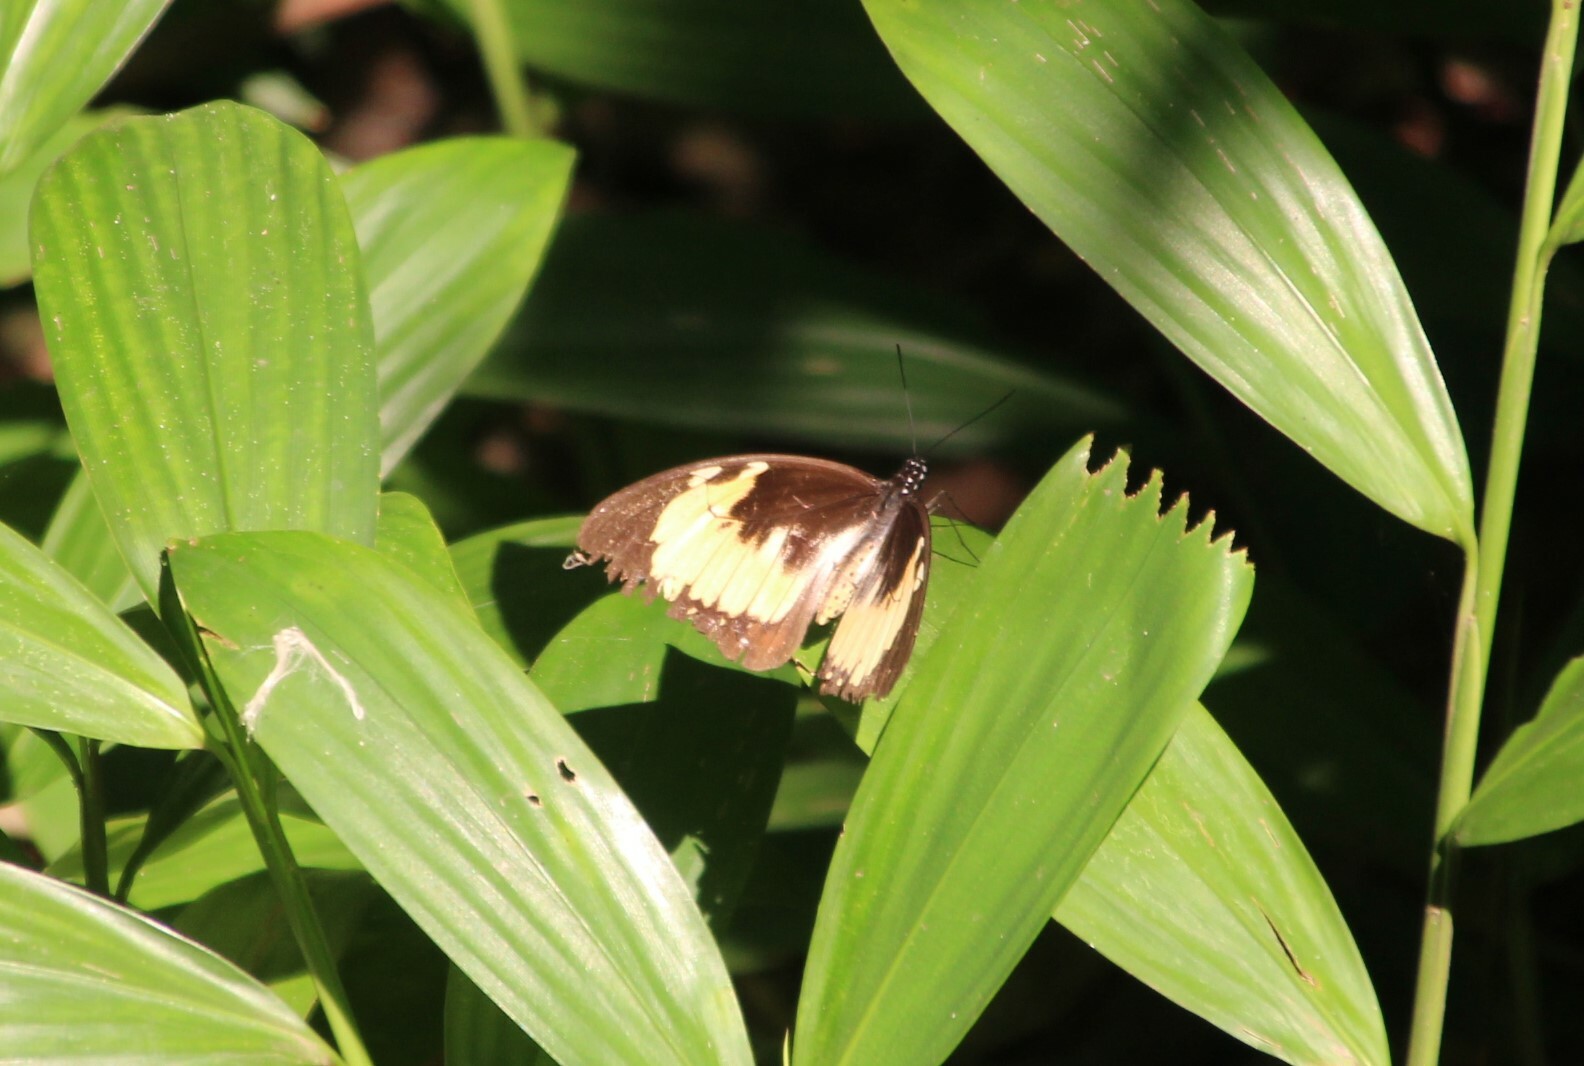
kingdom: Animalia
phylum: Arthropoda
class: Insecta
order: Lepidoptera
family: Papilionidae
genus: Papilio
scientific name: Papilio dardanus
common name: Flying handkerchief
